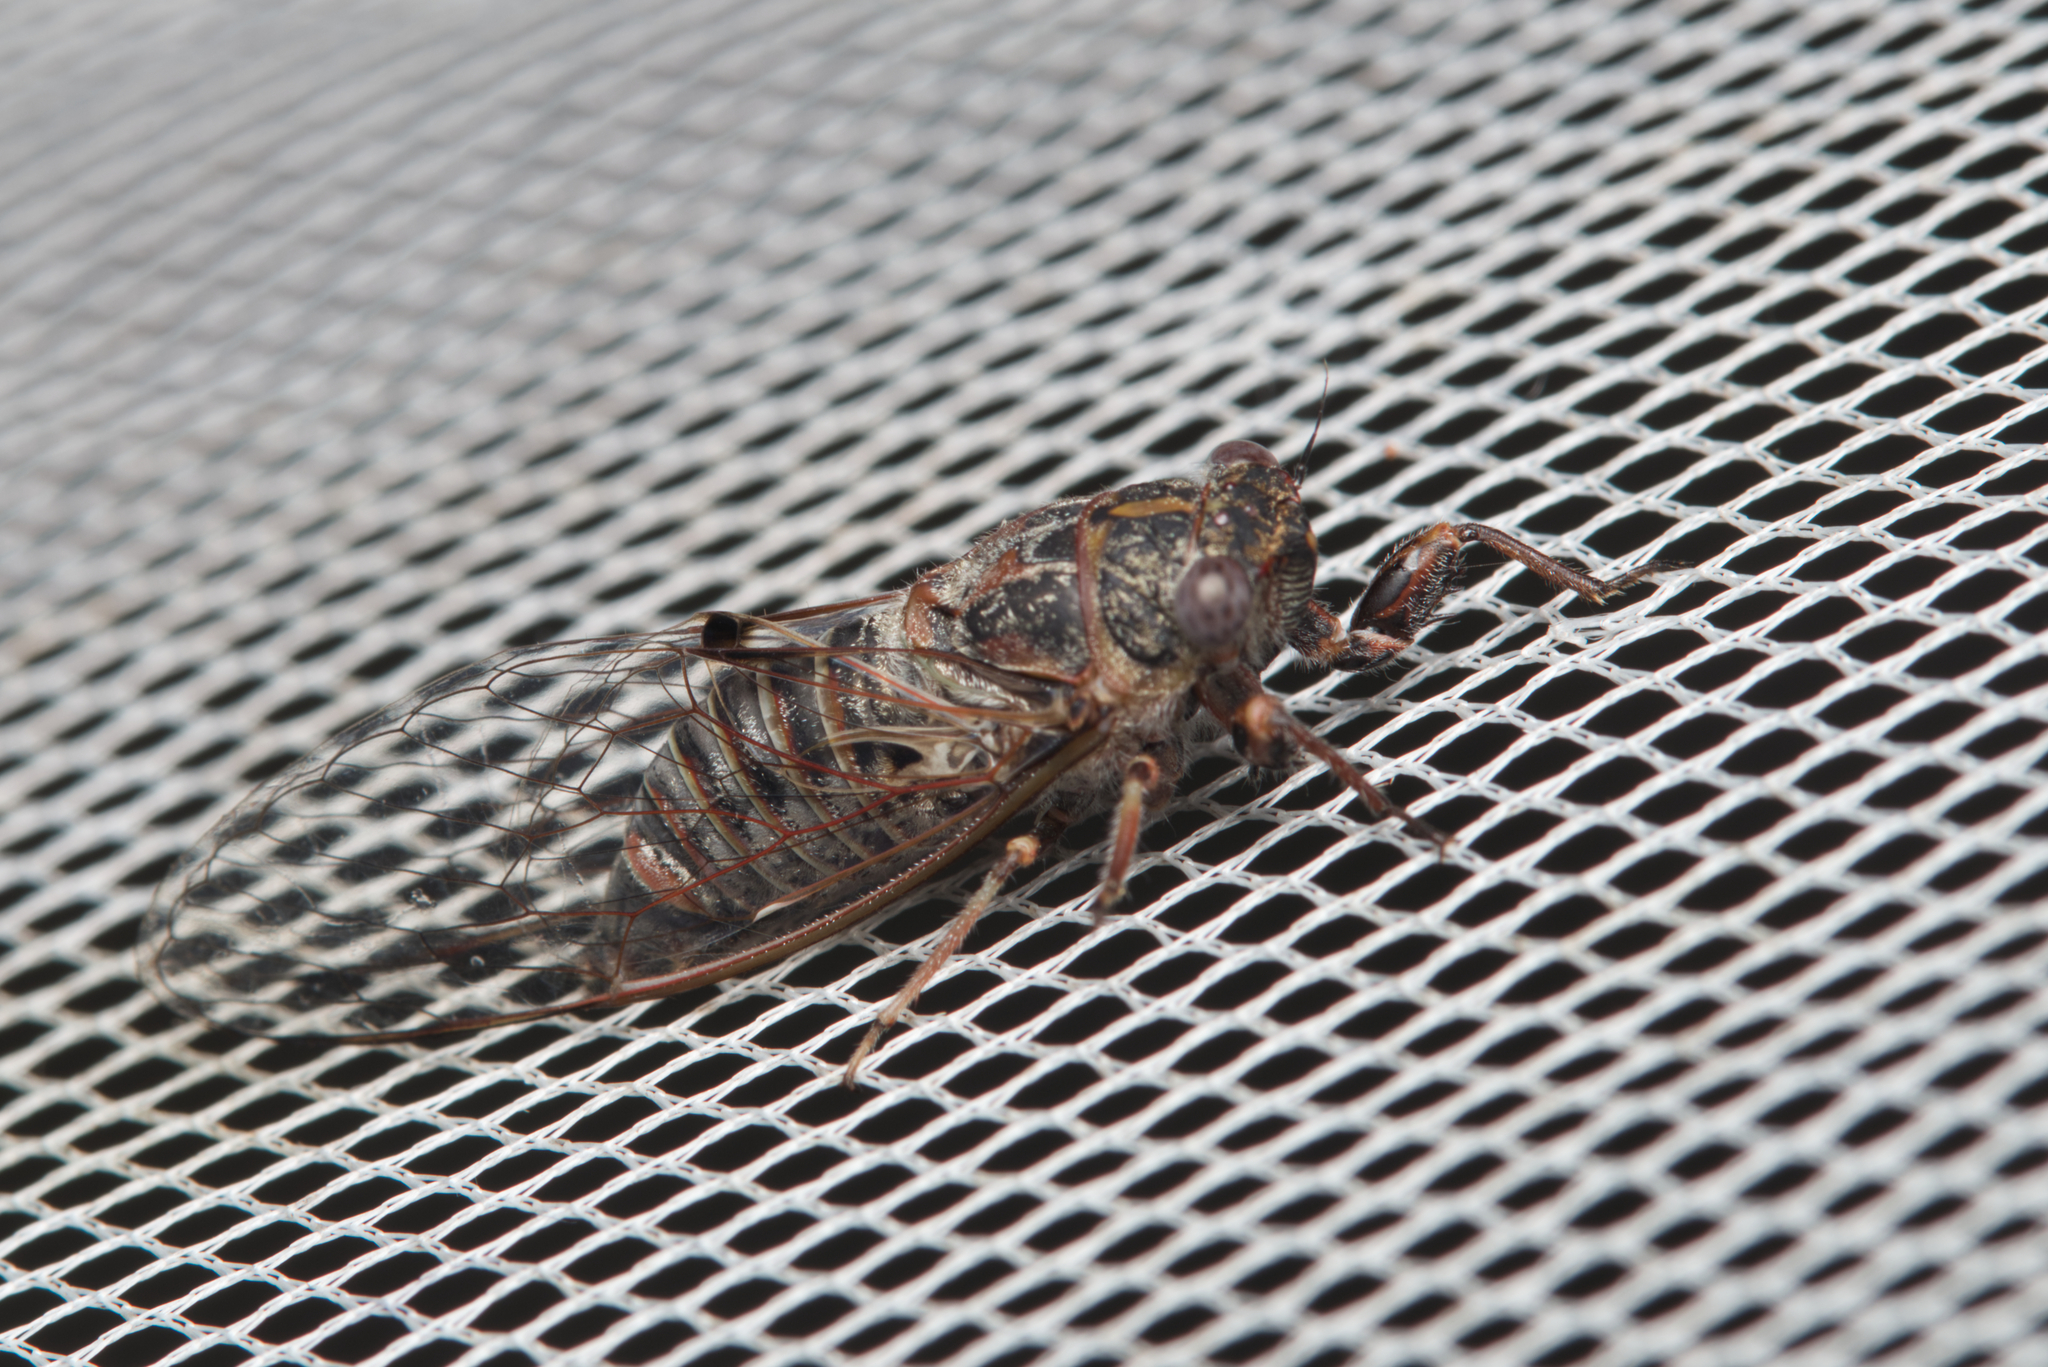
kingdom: Animalia
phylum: Arthropoda
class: Insecta
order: Hemiptera
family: Cicadidae
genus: Atrapsalta
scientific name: Atrapsalta corticina
